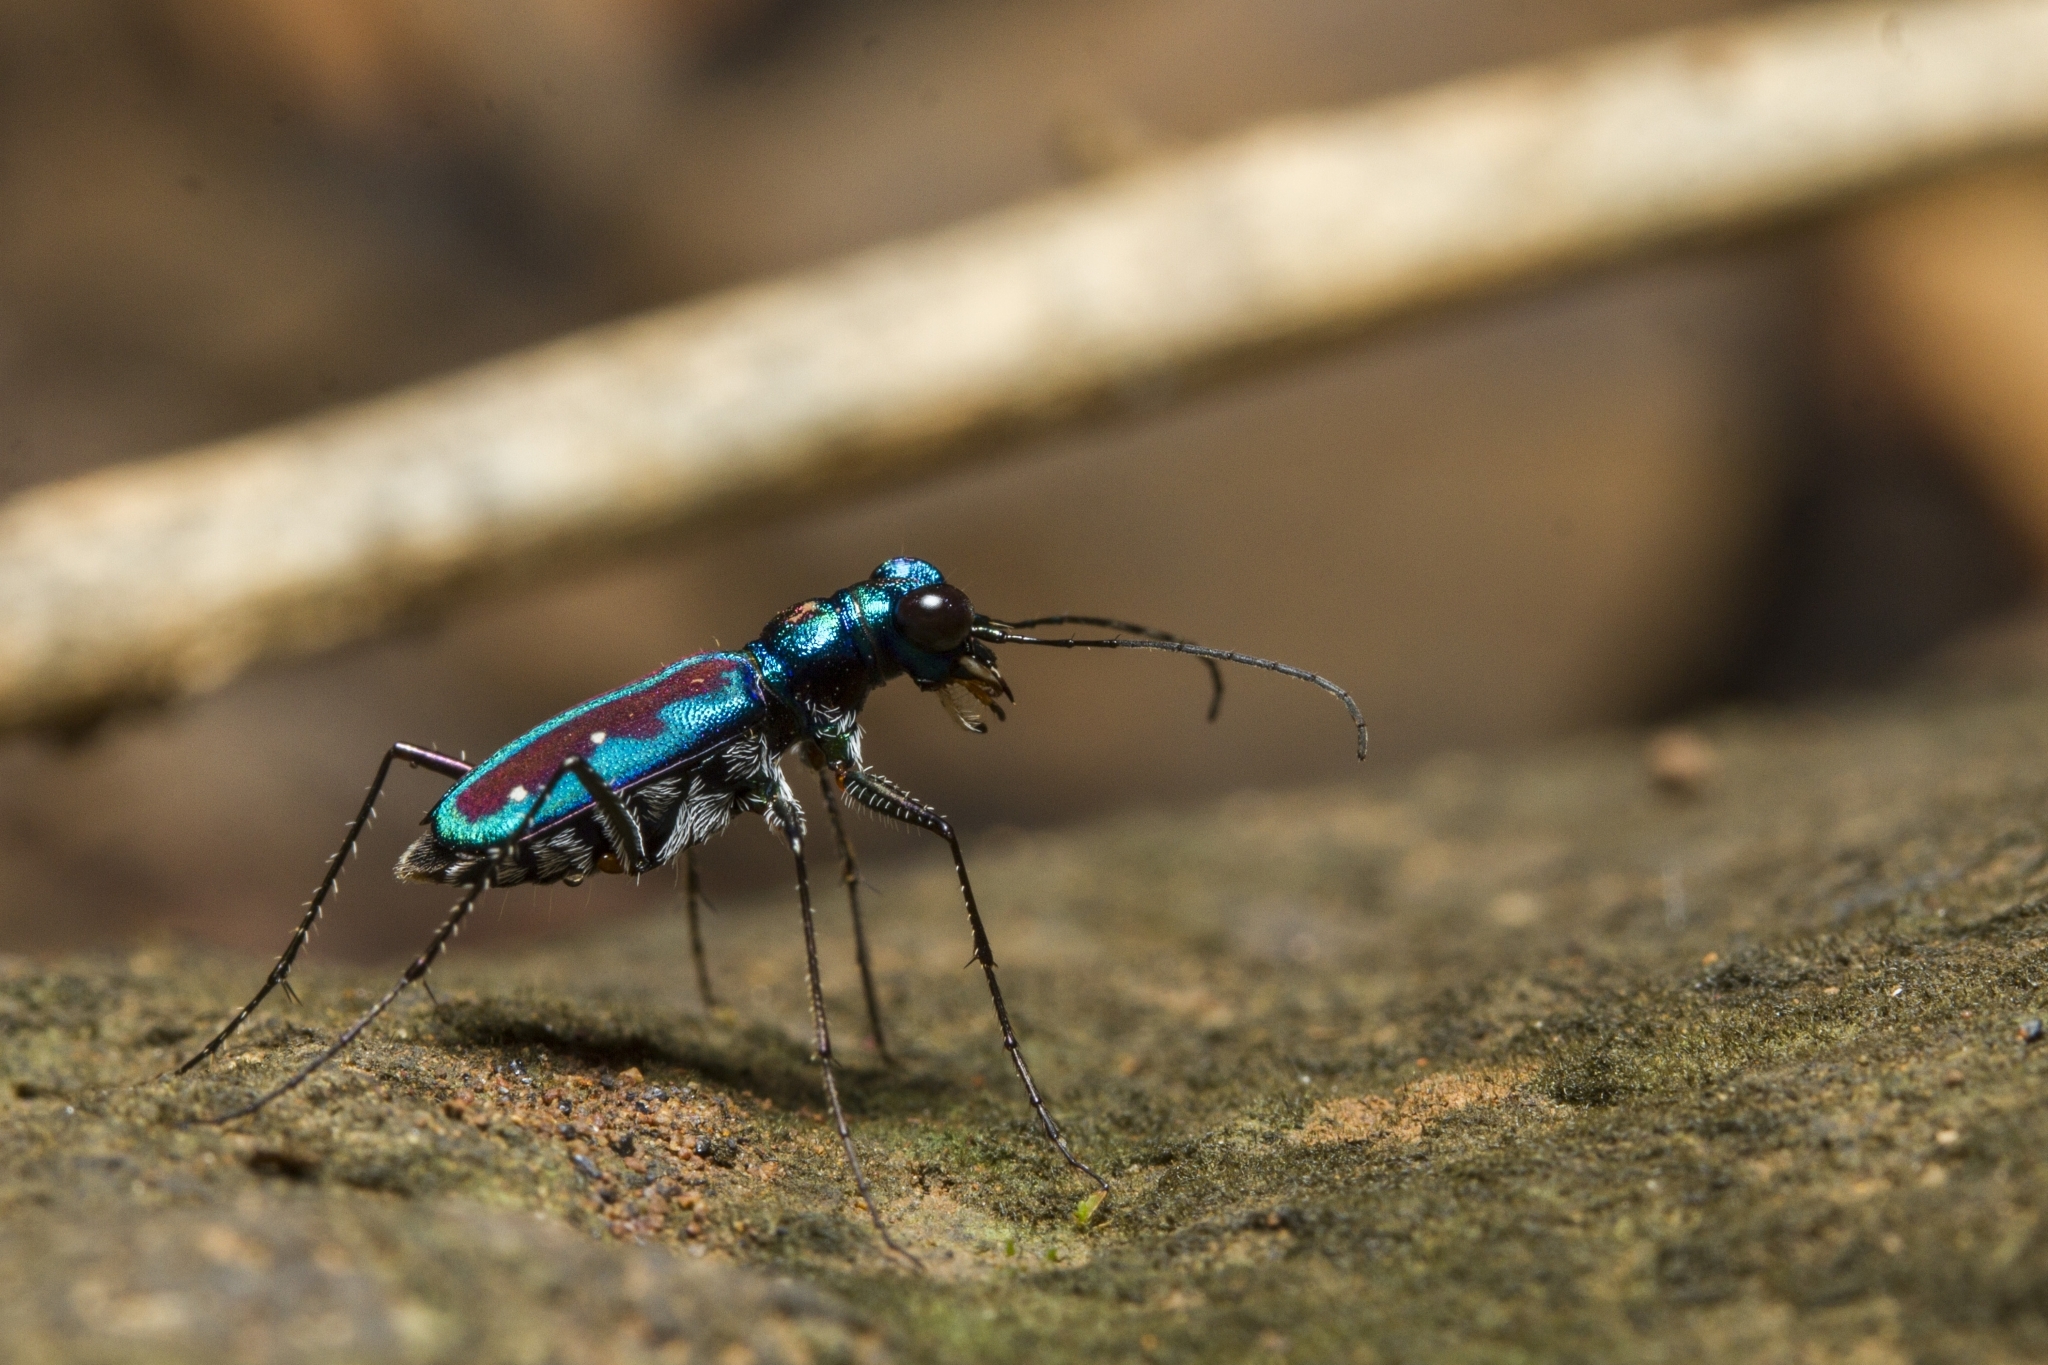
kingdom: Animalia
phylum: Arthropoda
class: Insecta
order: Coleoptera
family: Carabidae
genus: Jansenia
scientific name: Jansenia azureocincta
